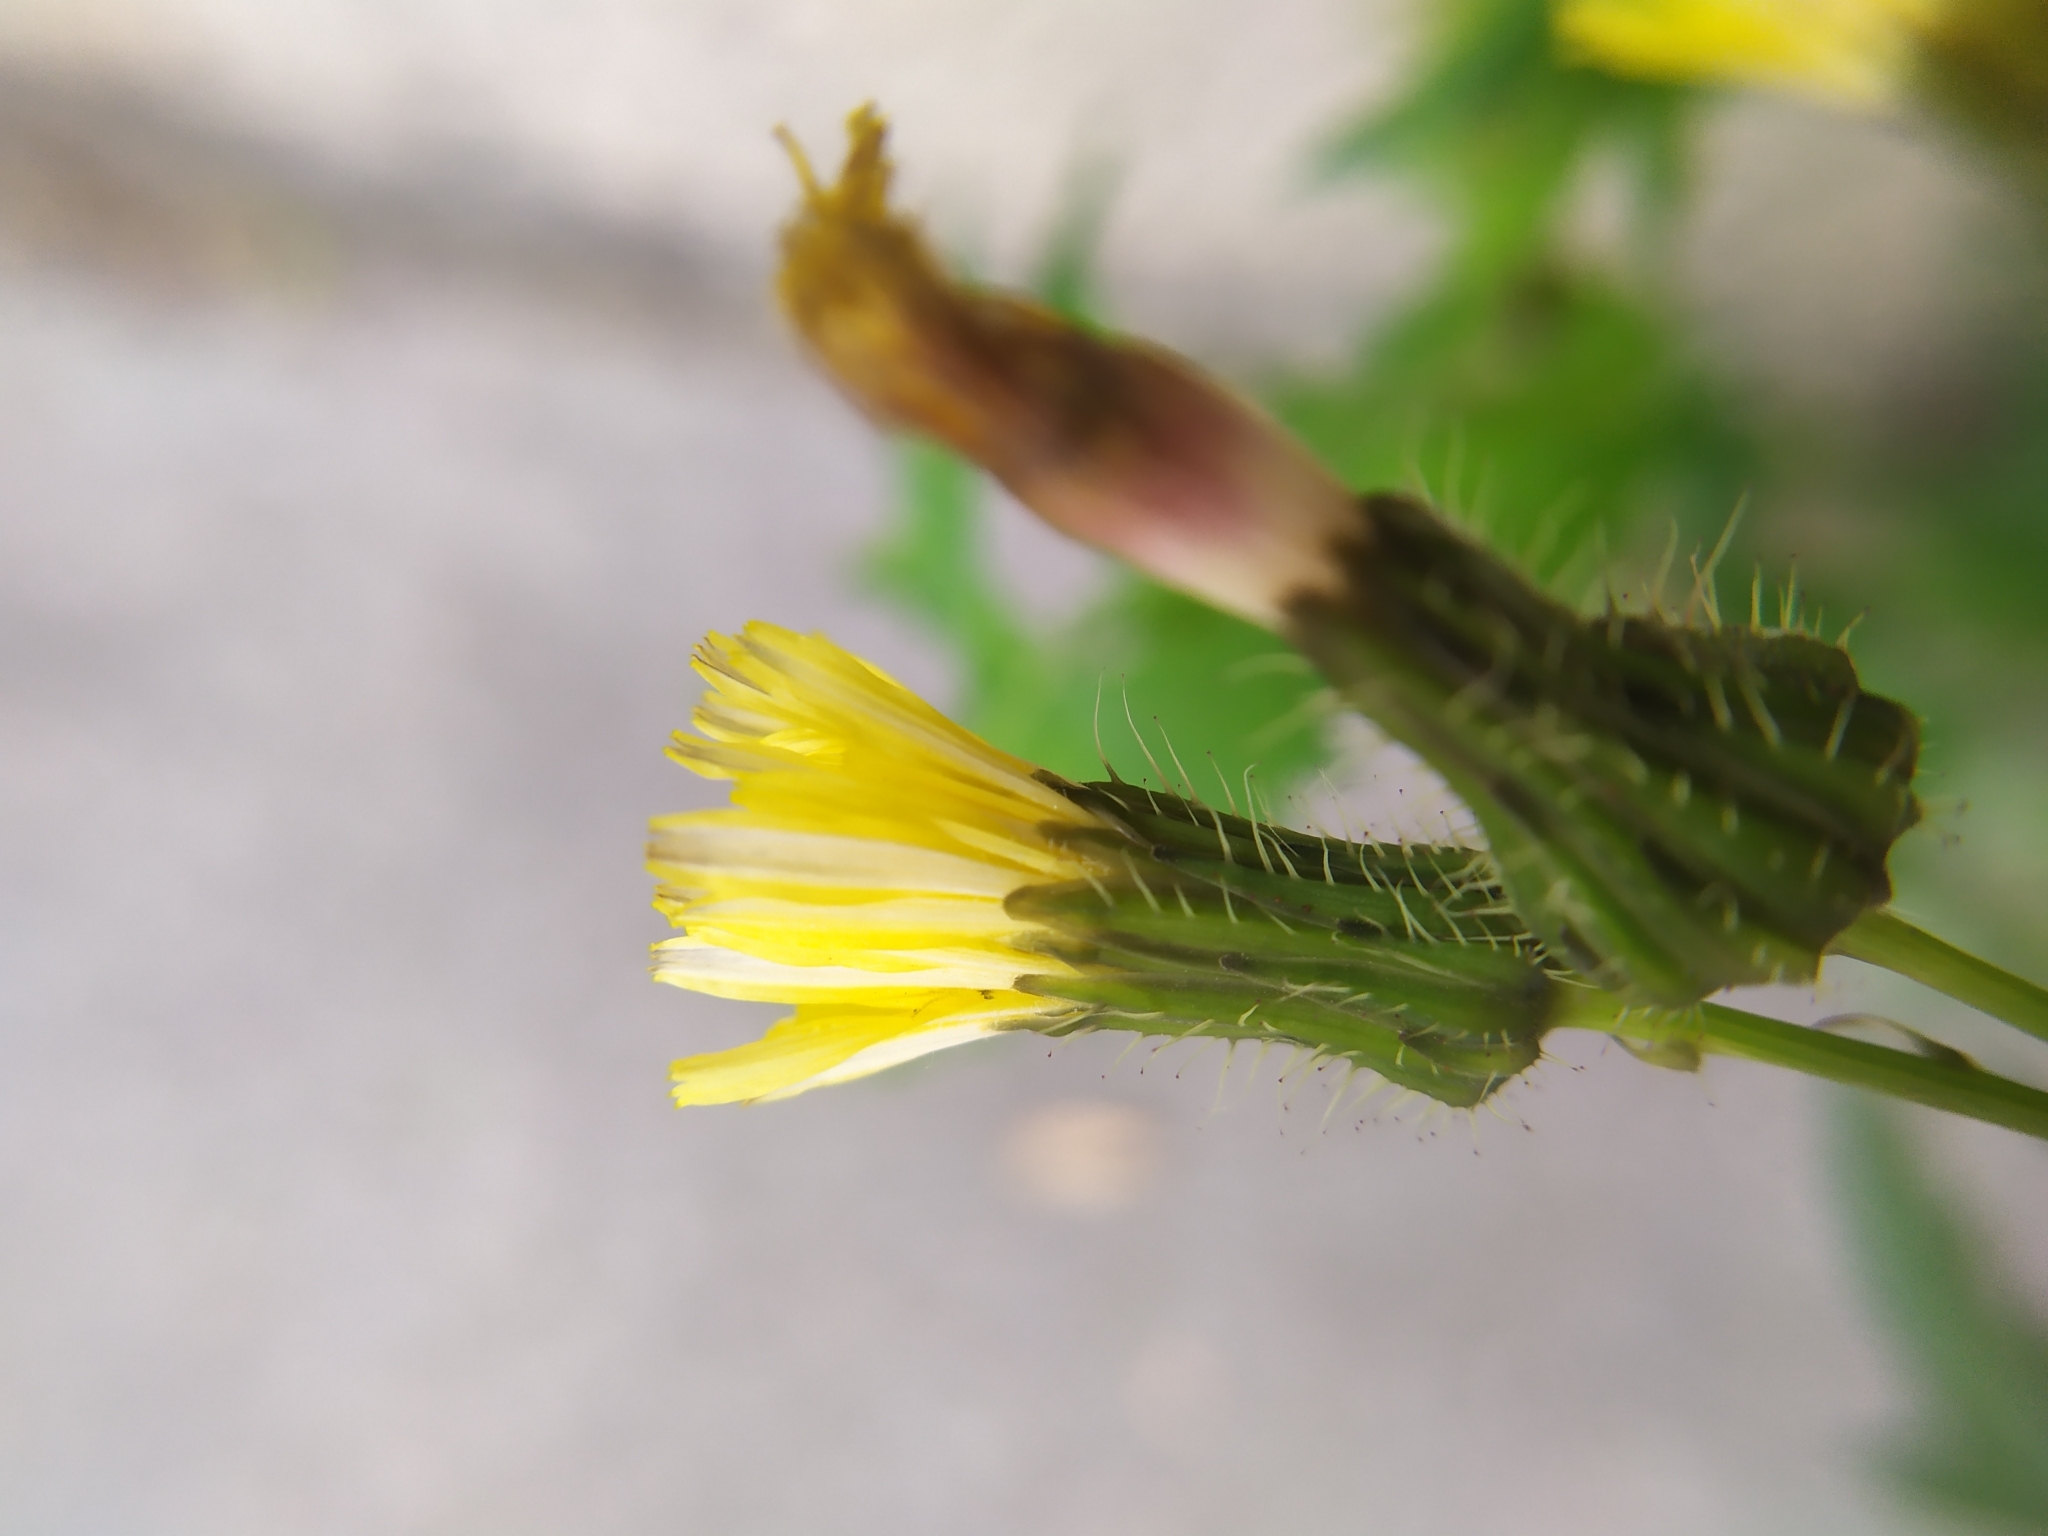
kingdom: Plantae
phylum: Tracheophyta
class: Magnoliopsida
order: Asterales
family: Asteraceae
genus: Sonchus
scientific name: Sonchus oleraceus
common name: Common sowthistle
